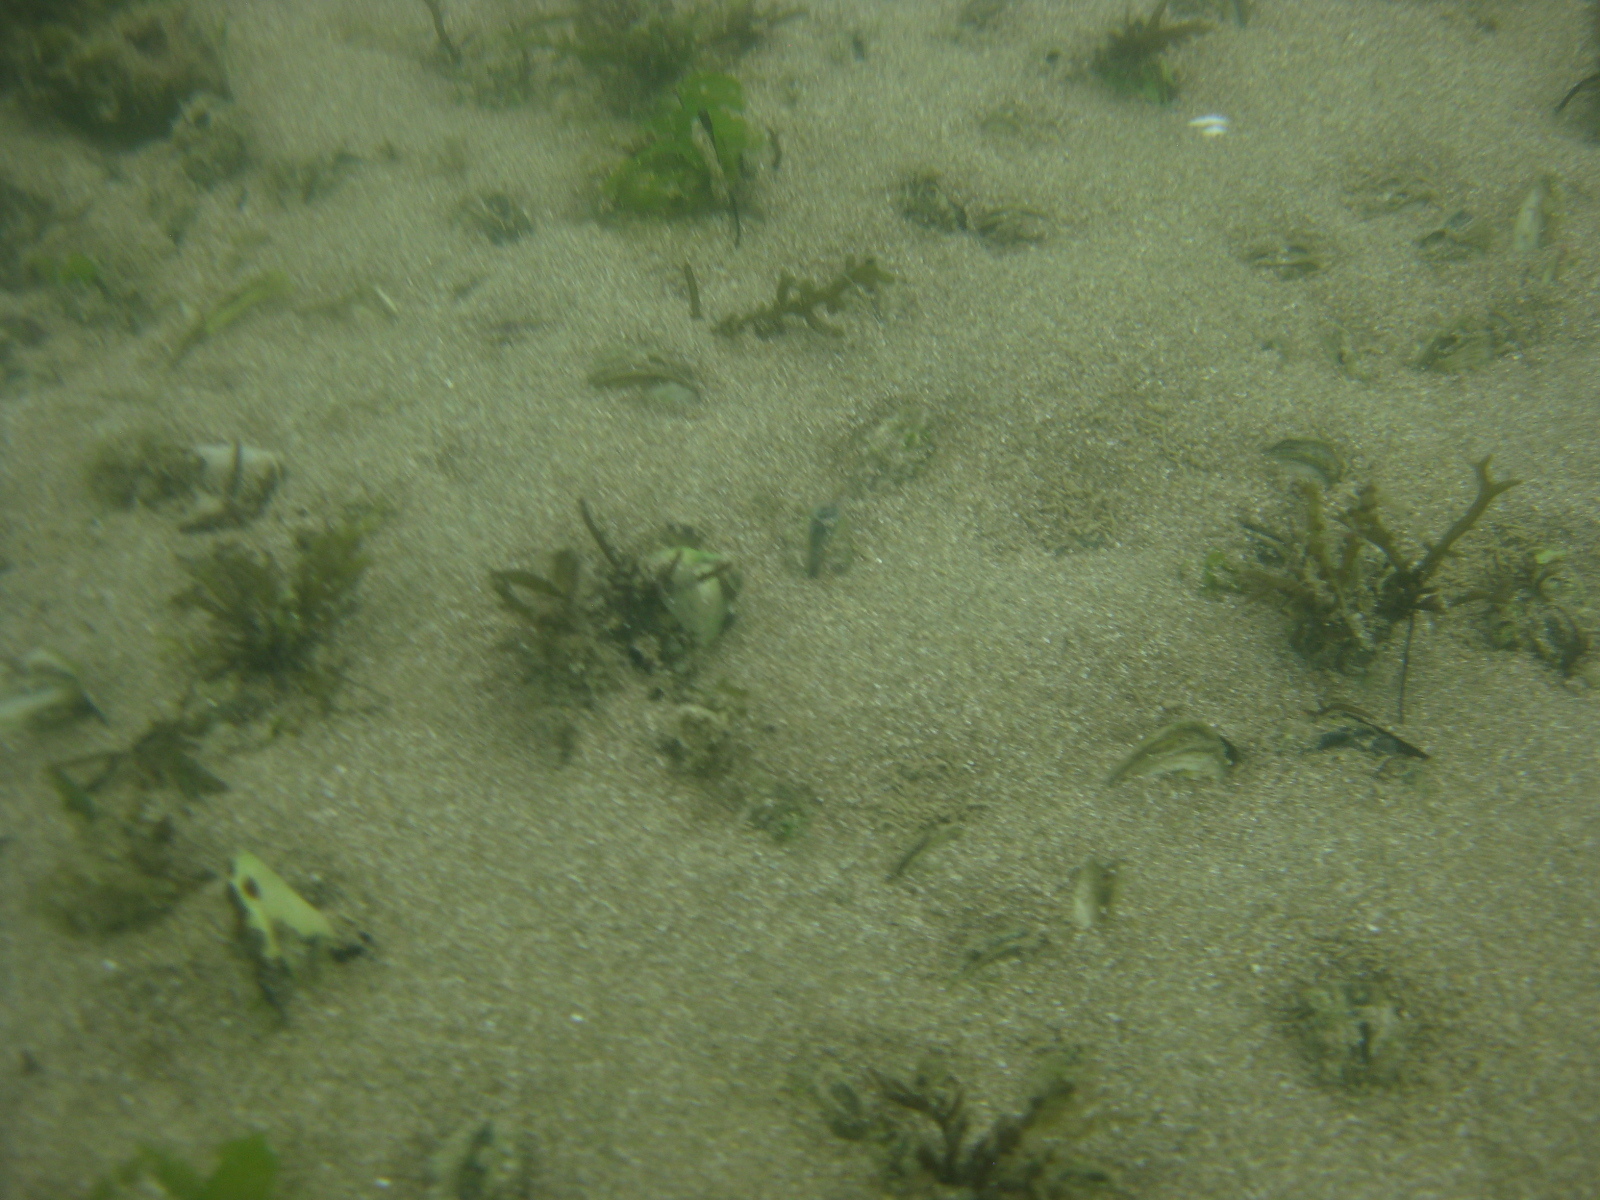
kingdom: Animalia
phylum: Mollusca
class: Bivalvia
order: Venerida
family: Mesodesmatidae
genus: Paphies
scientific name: Paphies australis
